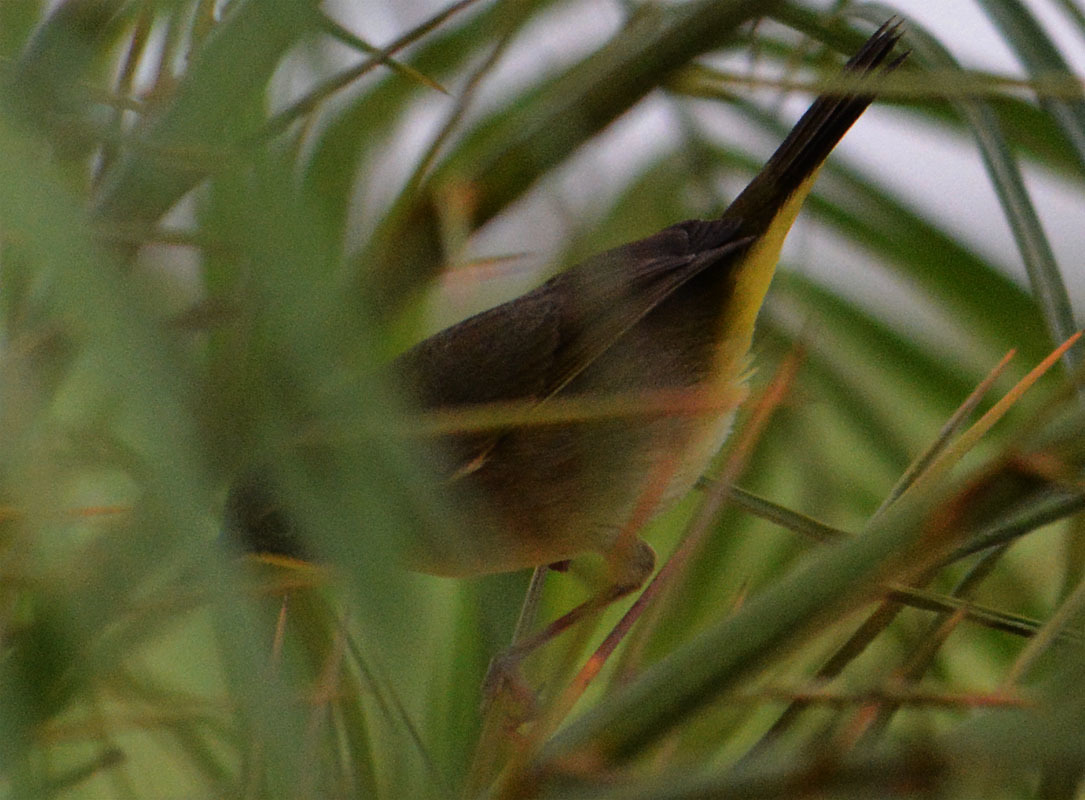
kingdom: Animalia
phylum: Chordata
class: Aves
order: Passeriformes
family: Parulidae
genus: Geothlypis
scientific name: Geothlypis trichas
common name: Common yellowthroat
